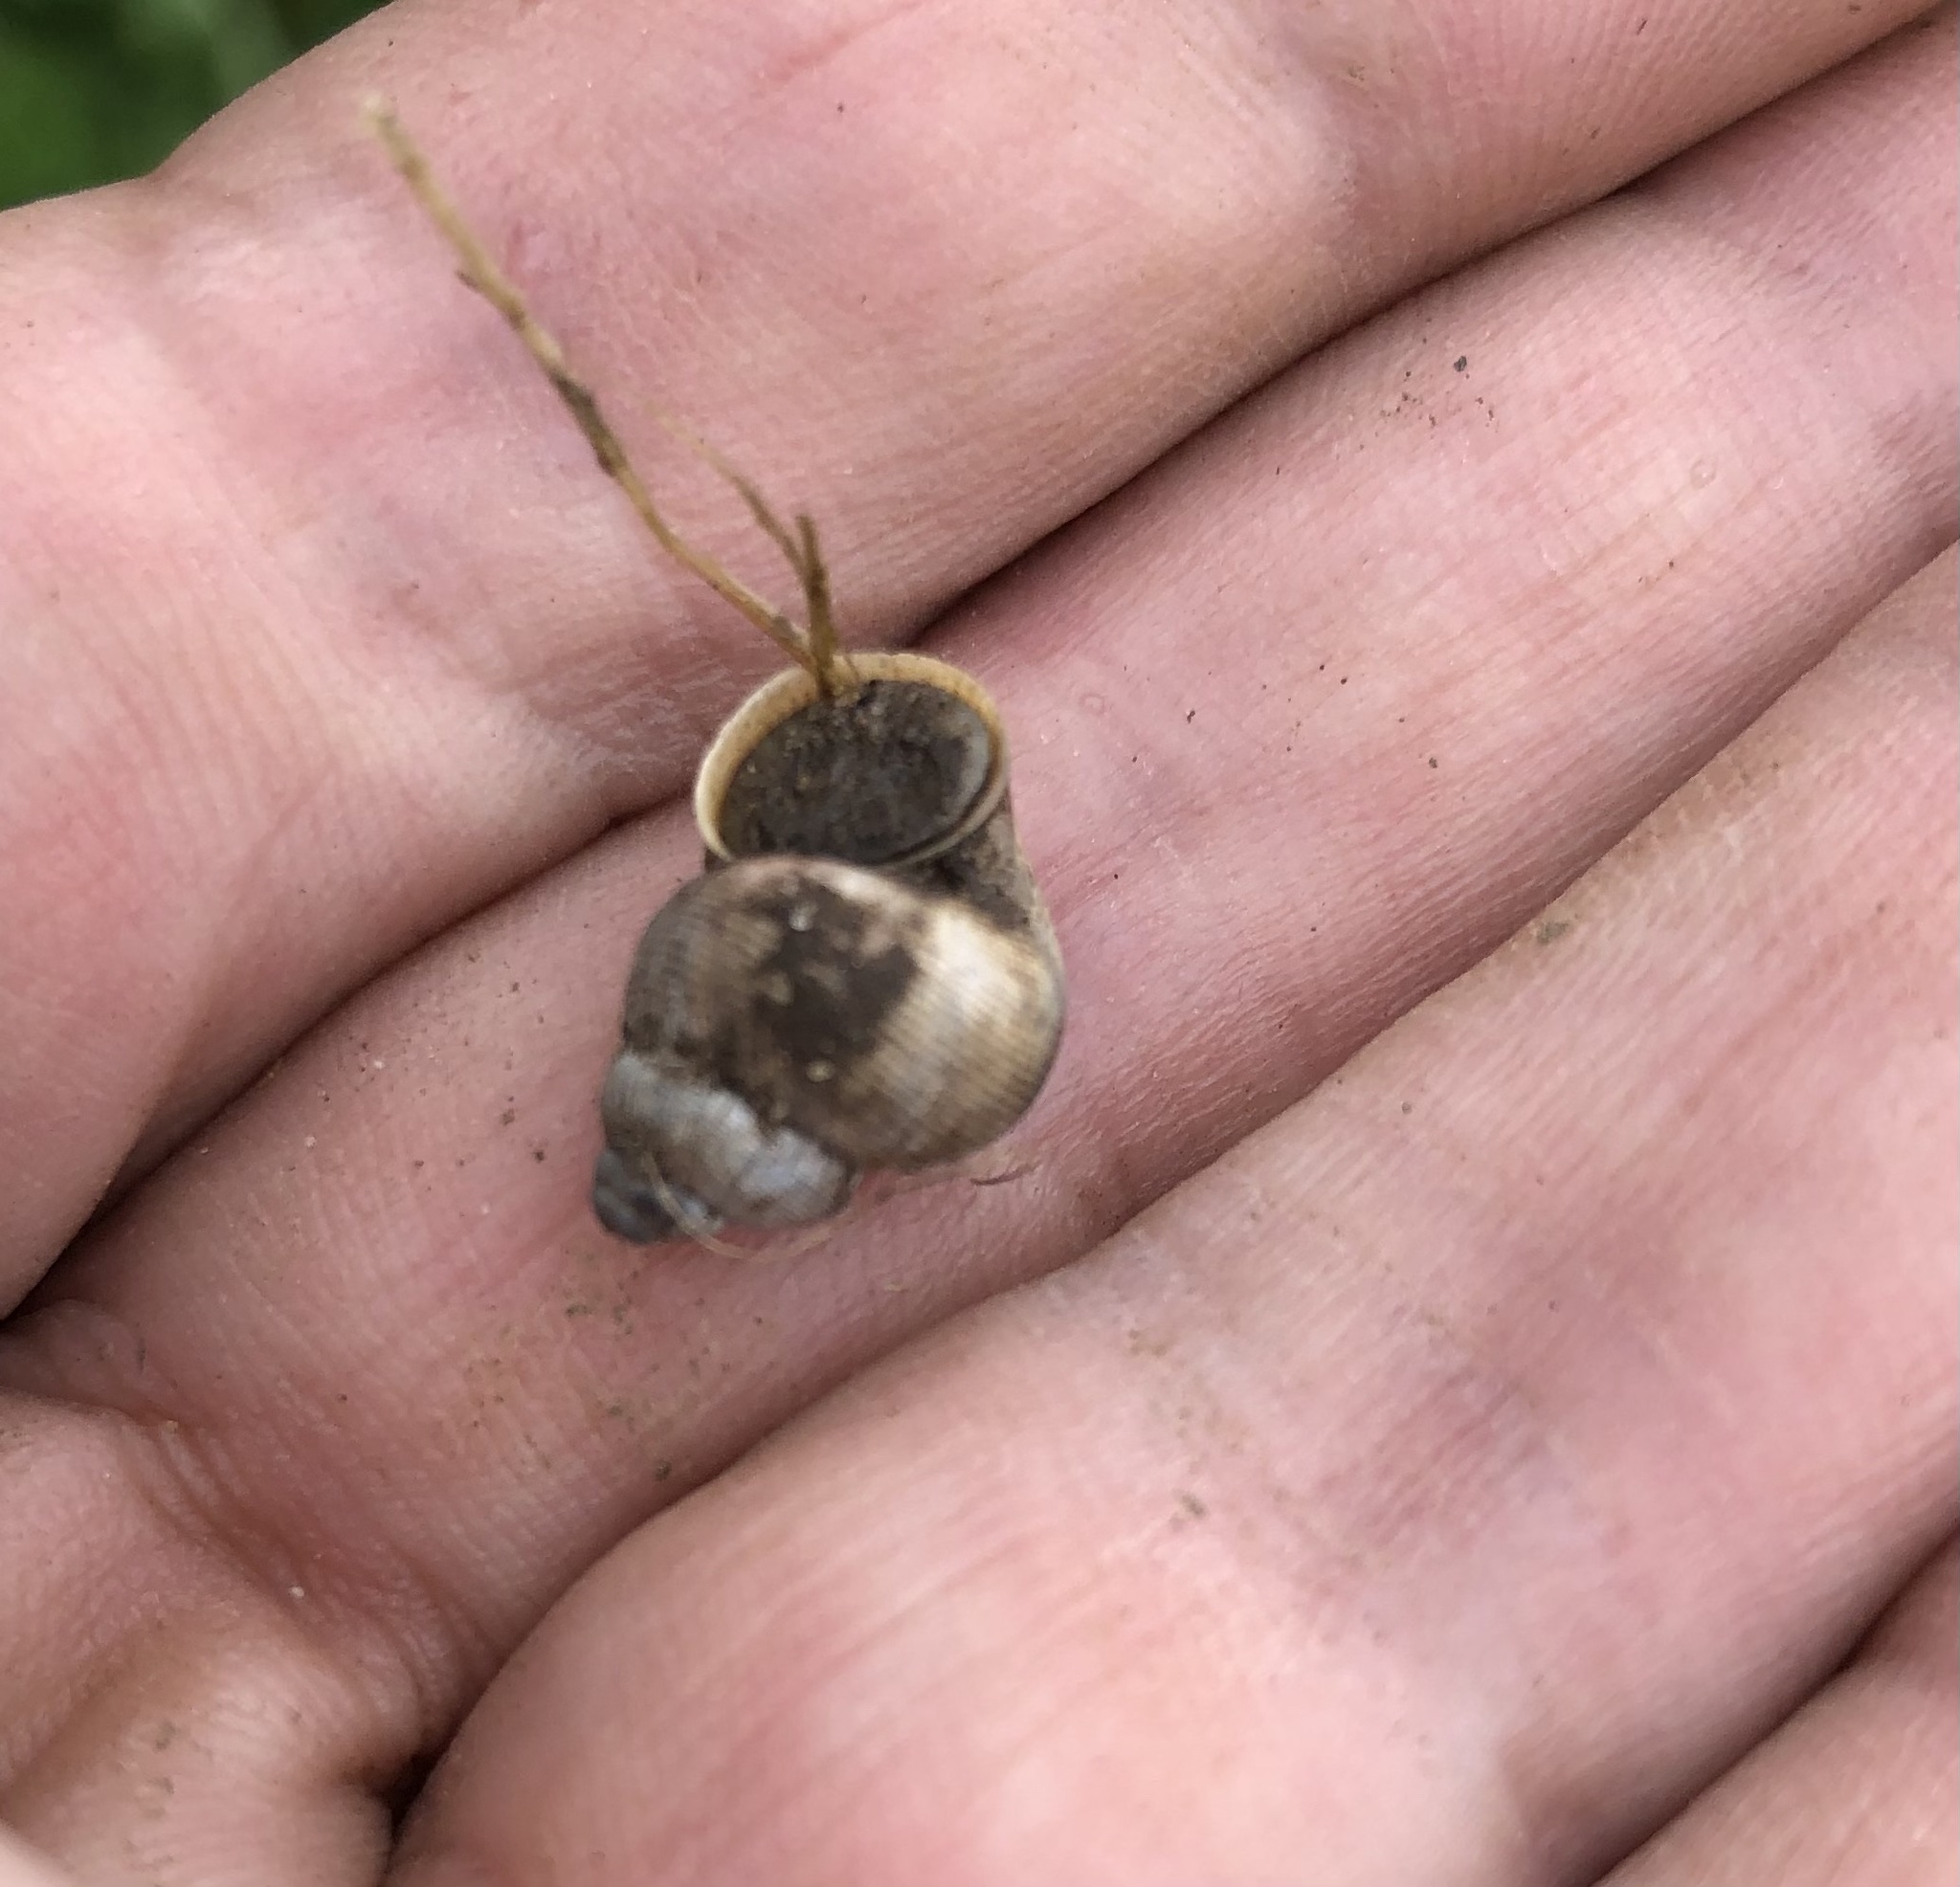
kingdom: Animalia
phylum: Mollusca
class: Gastropoda
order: Littorinimorpha
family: Pomatiidae
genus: Pomatias
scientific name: Pomatias elegans
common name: Red-mouthed snail
